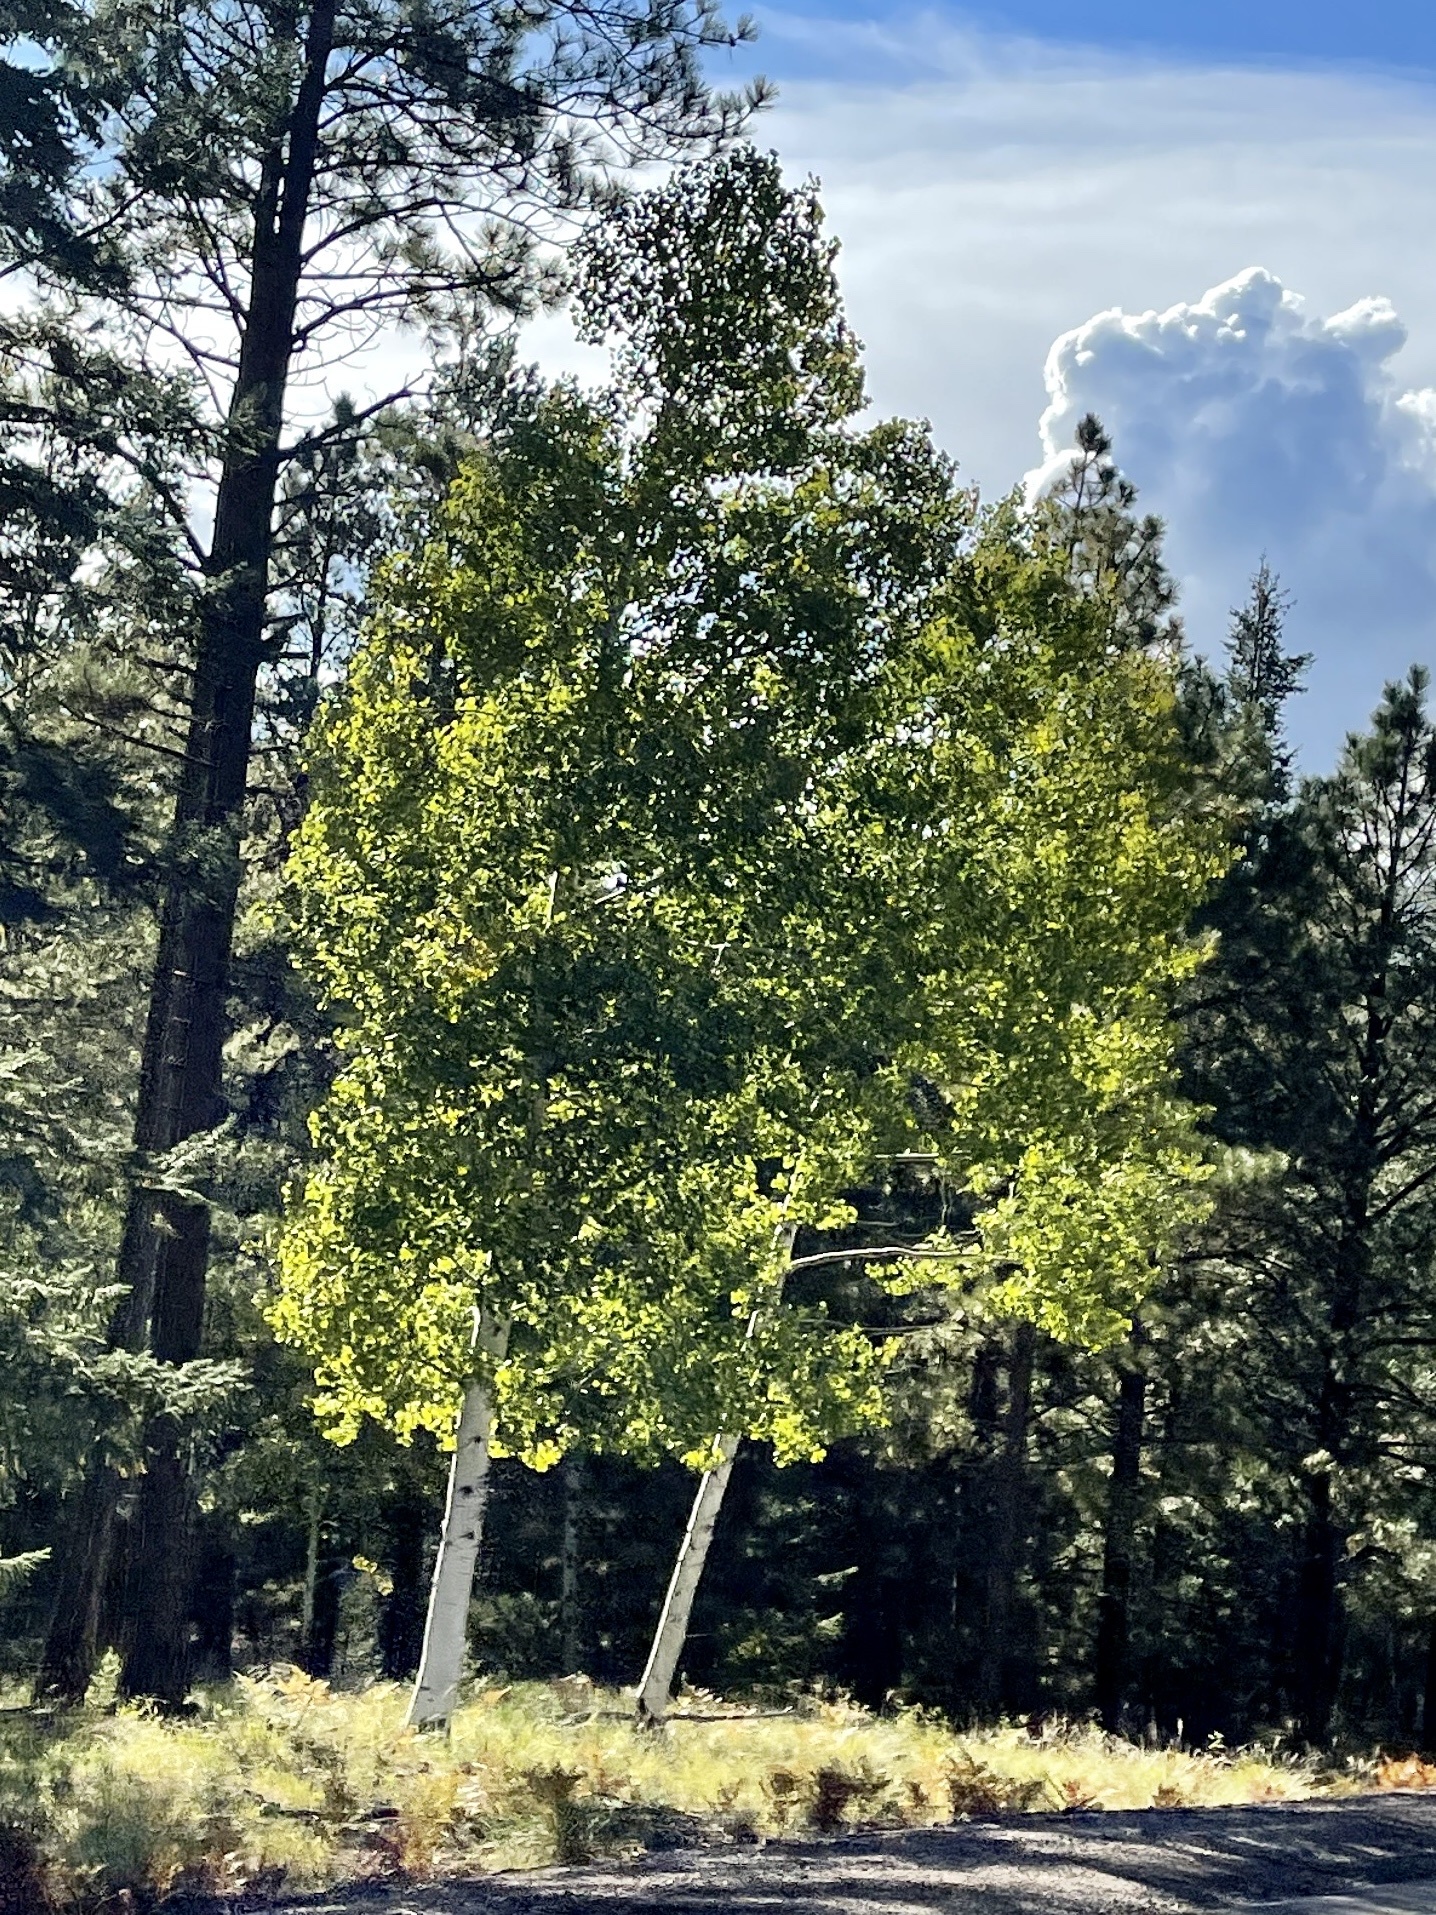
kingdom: Plantae
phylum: Tracheophyta
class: Magnoliopsida
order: Malpighiales
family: Salicaceae
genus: Populus
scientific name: Populus tremuloides
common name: Quaking aspen
